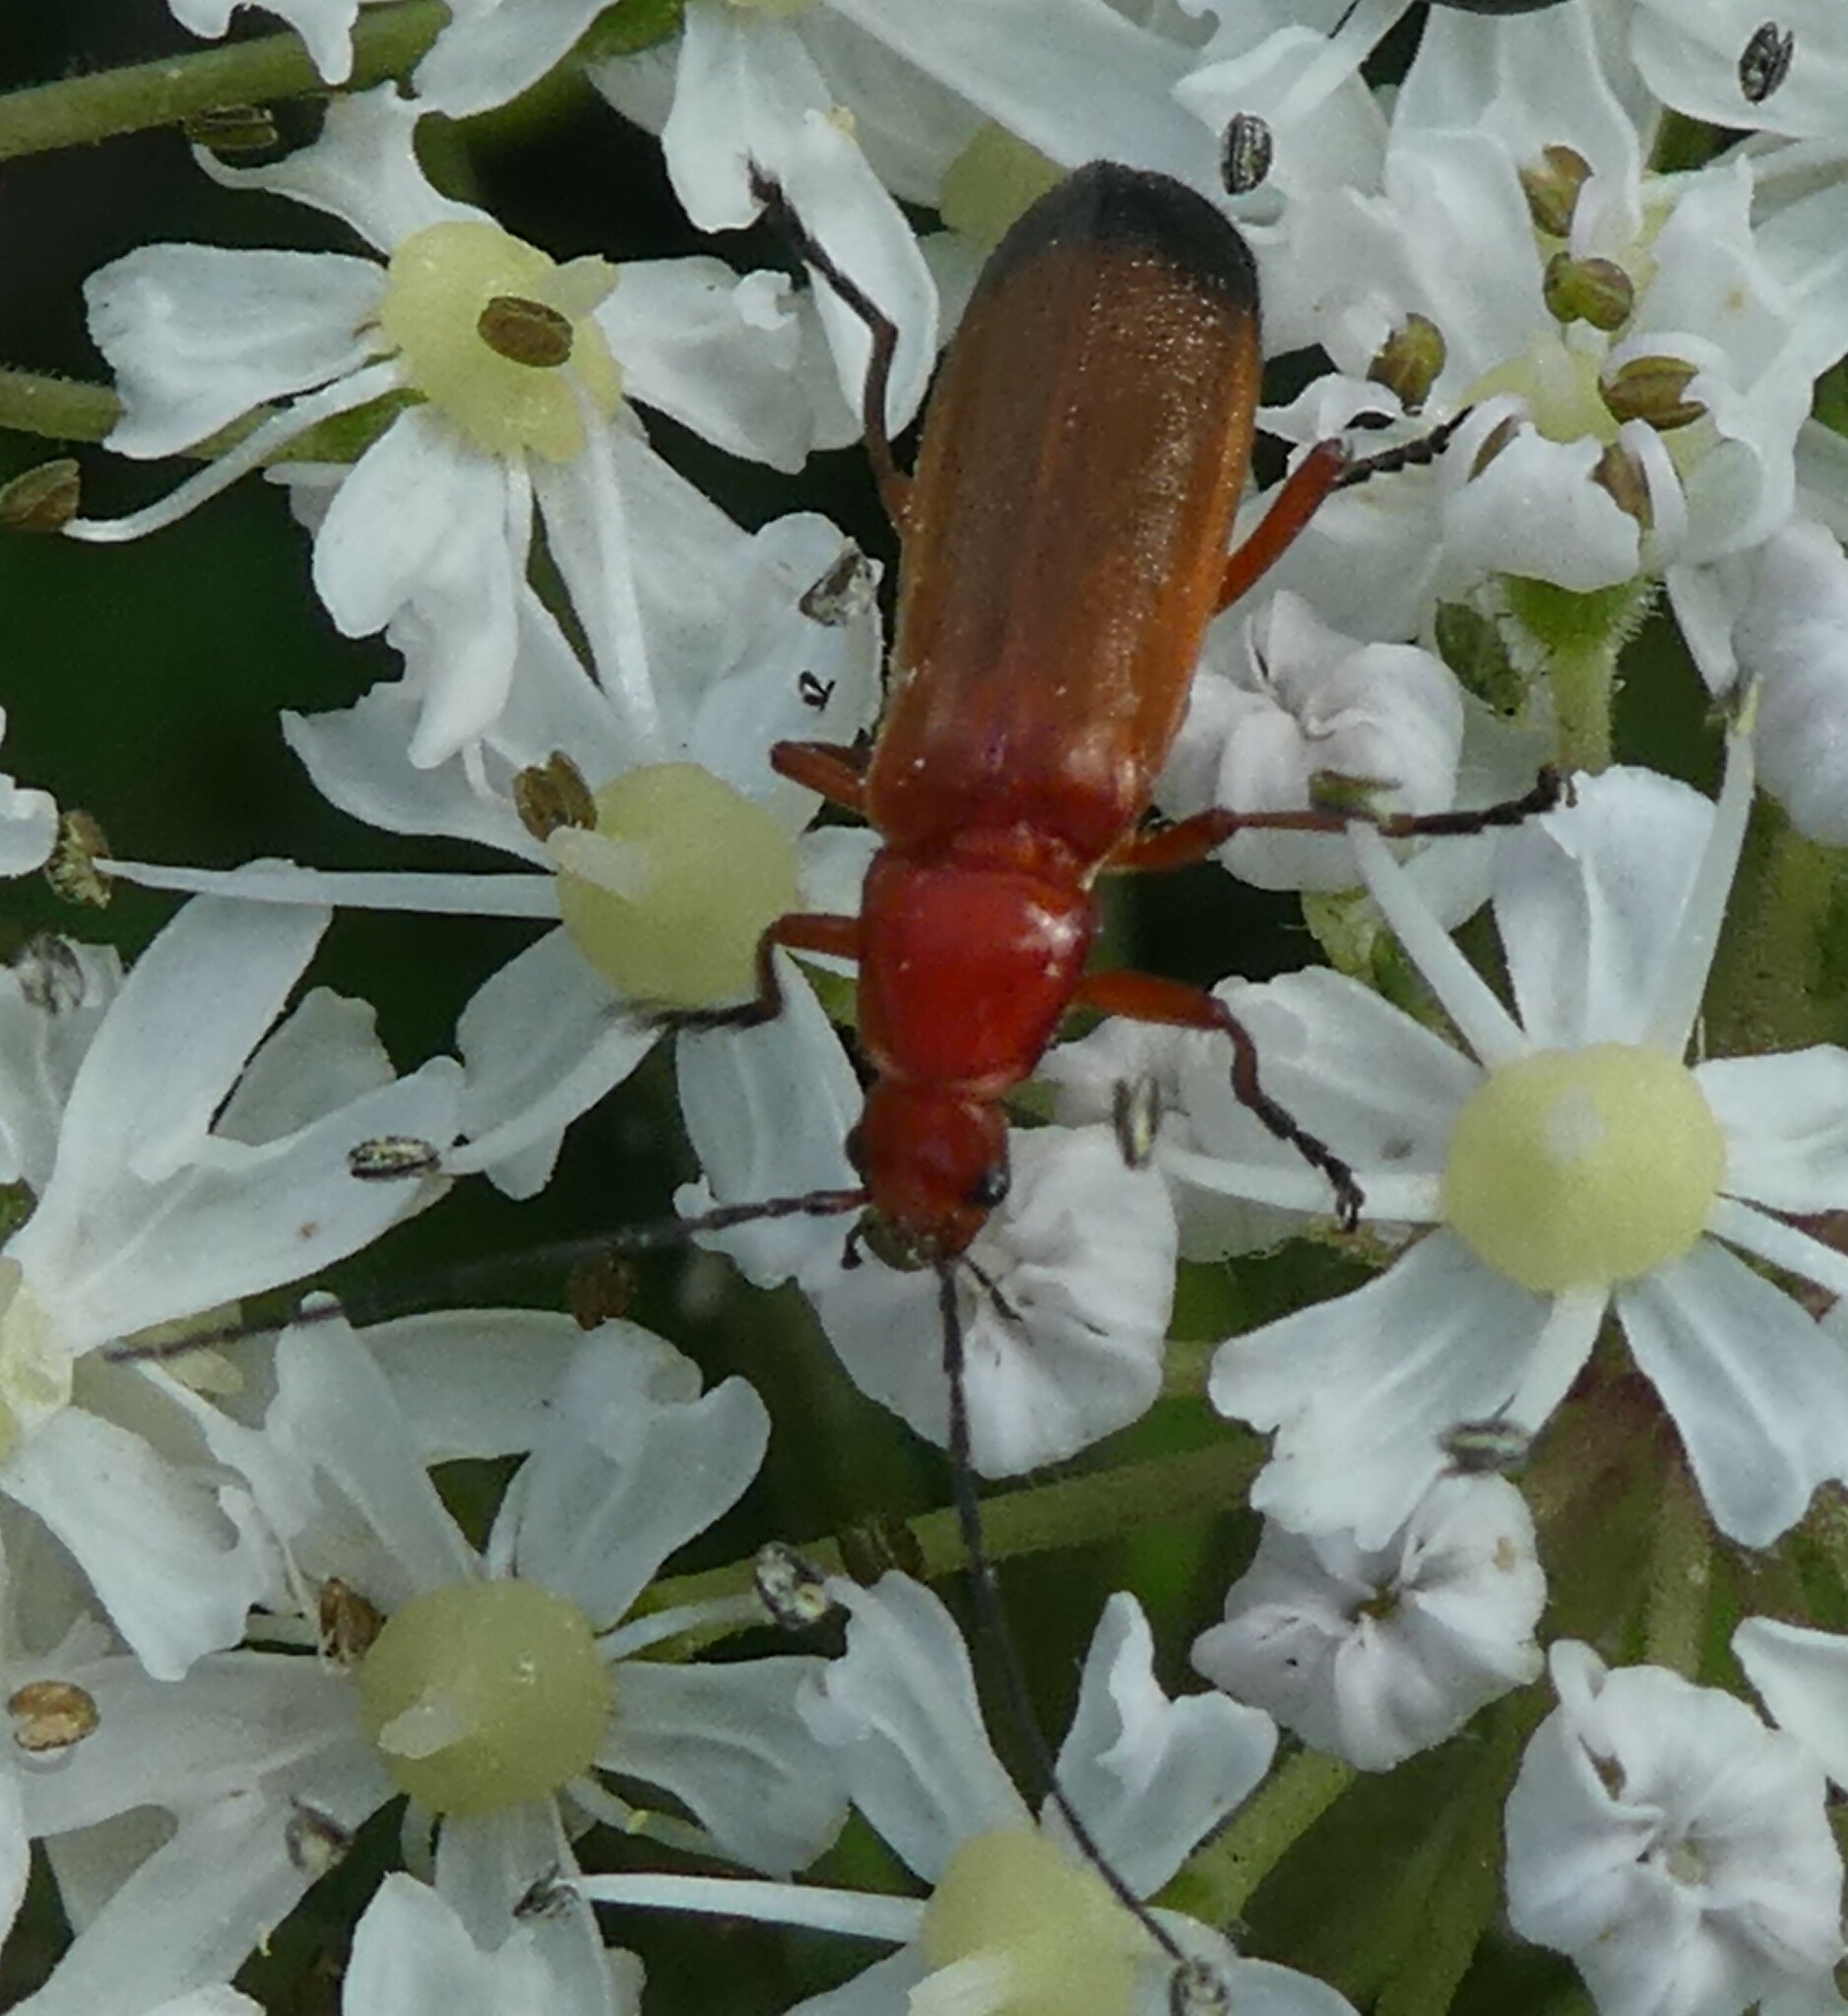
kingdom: Animalia
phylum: Arthropoda
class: Insecta
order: Coleoptera
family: Cantharidae
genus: Rhagonycha
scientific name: Rhagonycha fulva
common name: Common red soldier beetle
